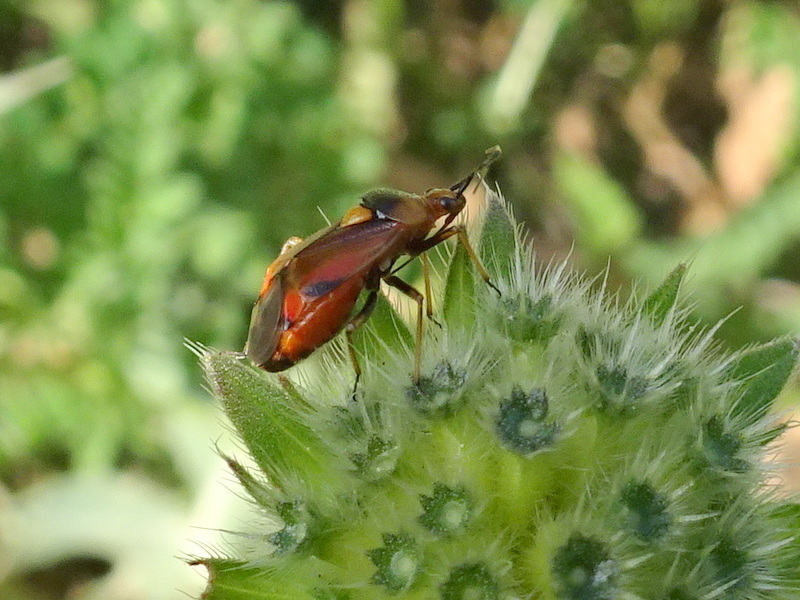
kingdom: Animalia
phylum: Arthropoda
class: Insecta
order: Hemiptera
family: Miridae
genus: Deraeocoris
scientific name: Deraeocoris ruber
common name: Plant bug
